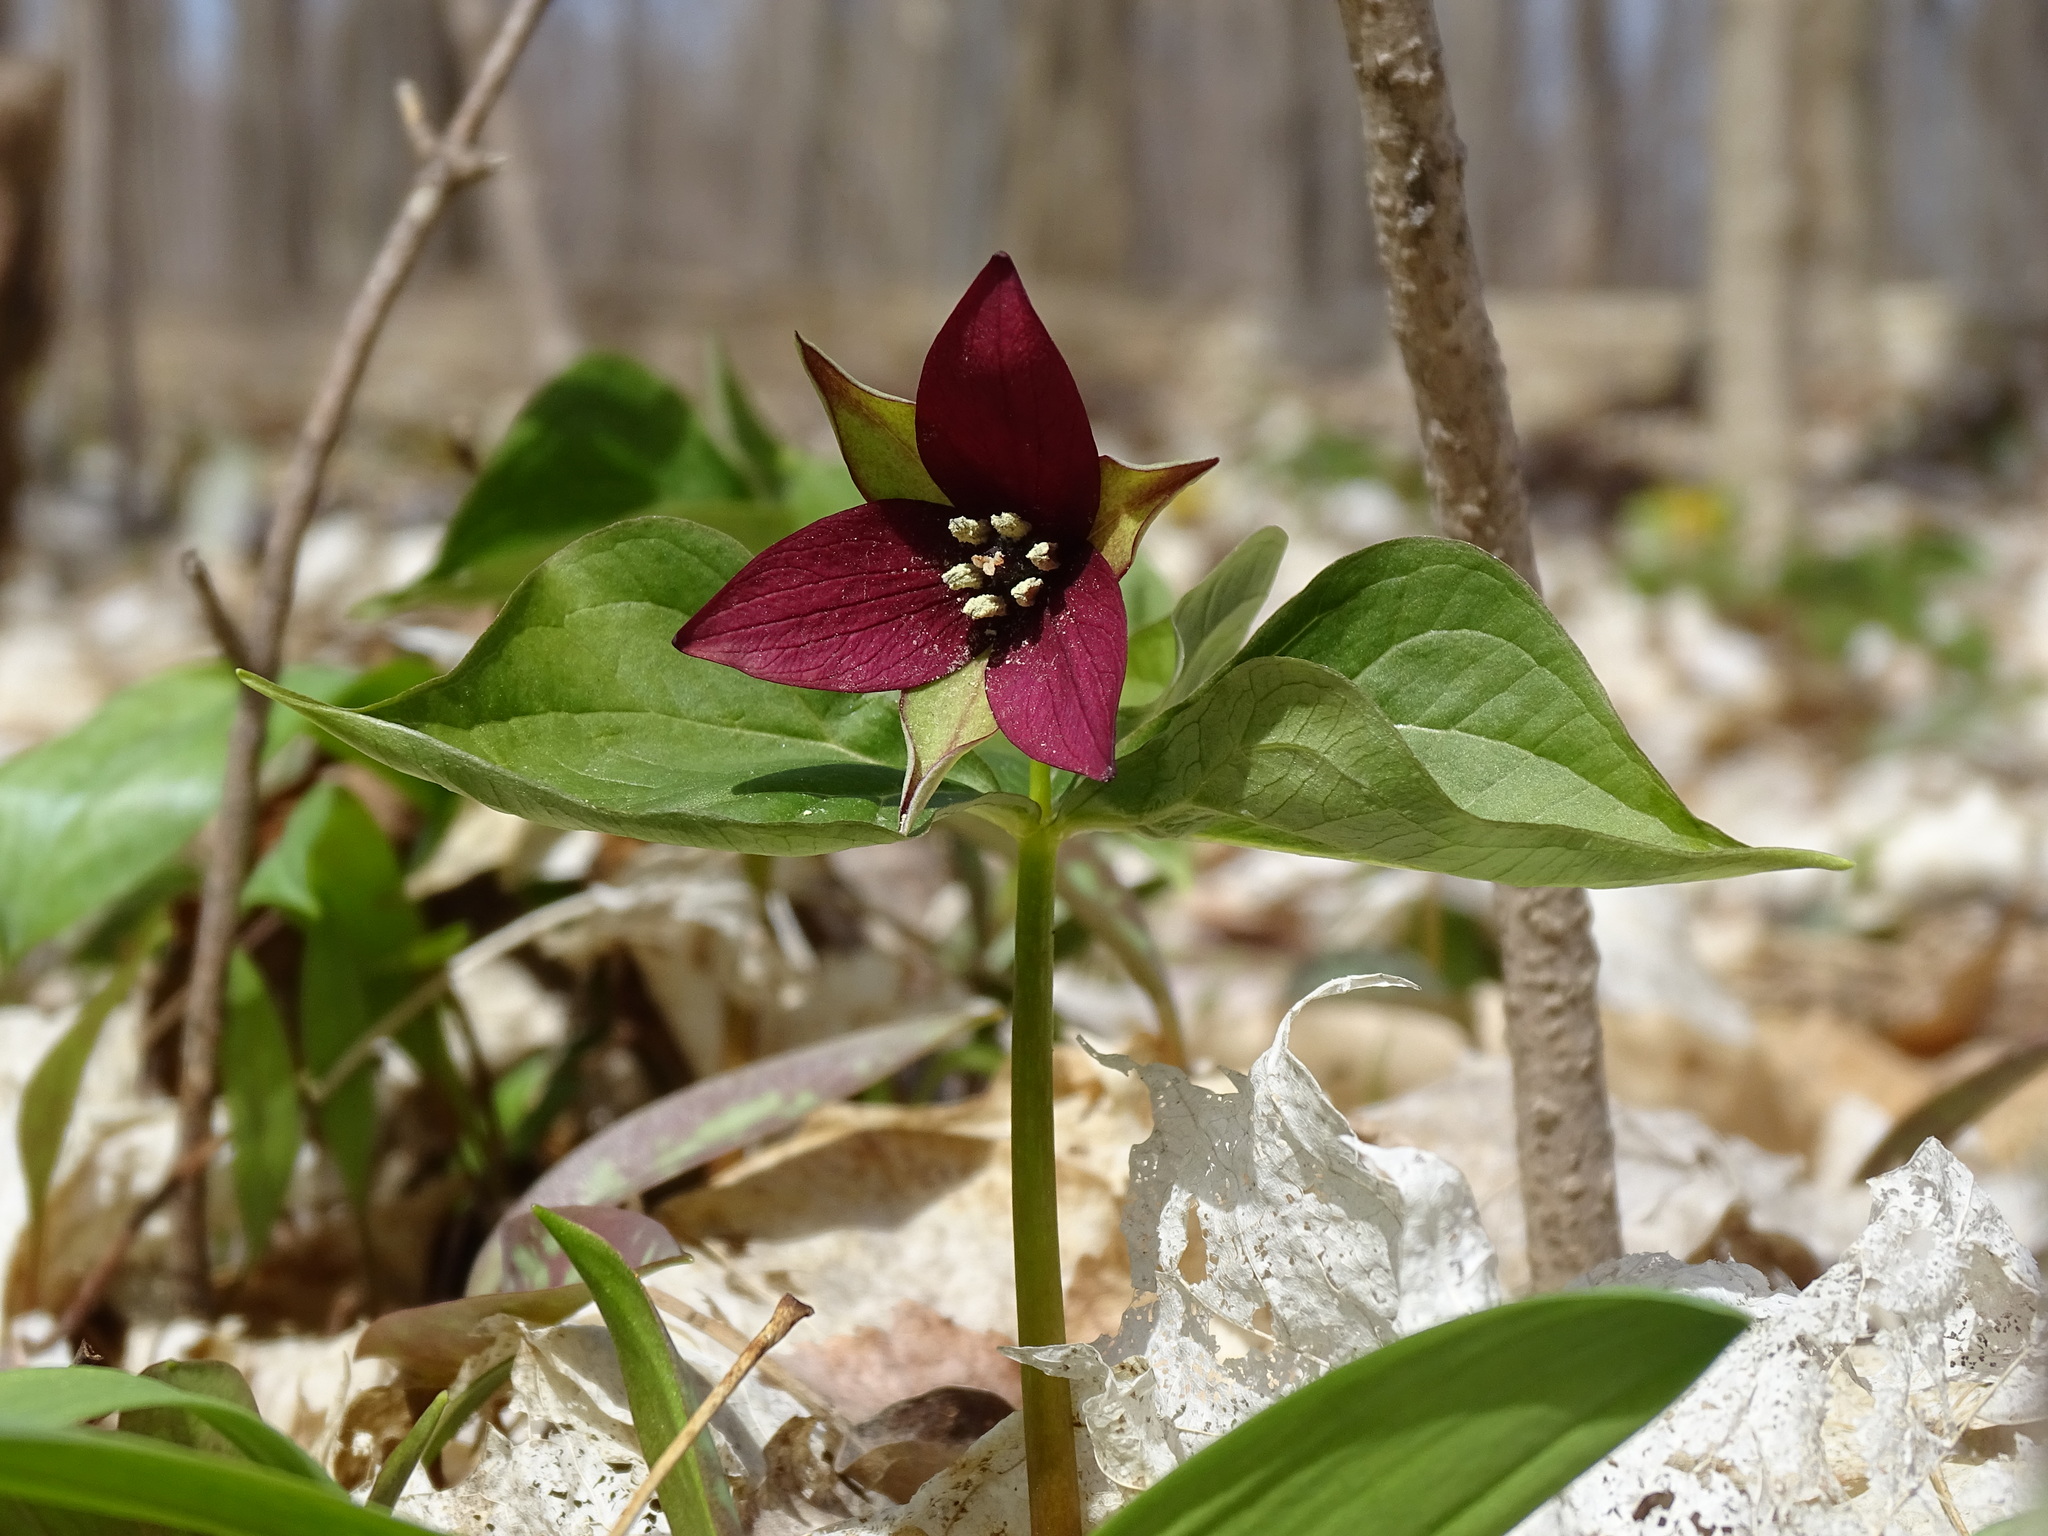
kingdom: Plantae
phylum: Tracheophyta
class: Liliopsida
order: Liliales
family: Melanthiaceae
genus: Trillium
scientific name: Trillium erectum
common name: Purple trillium
